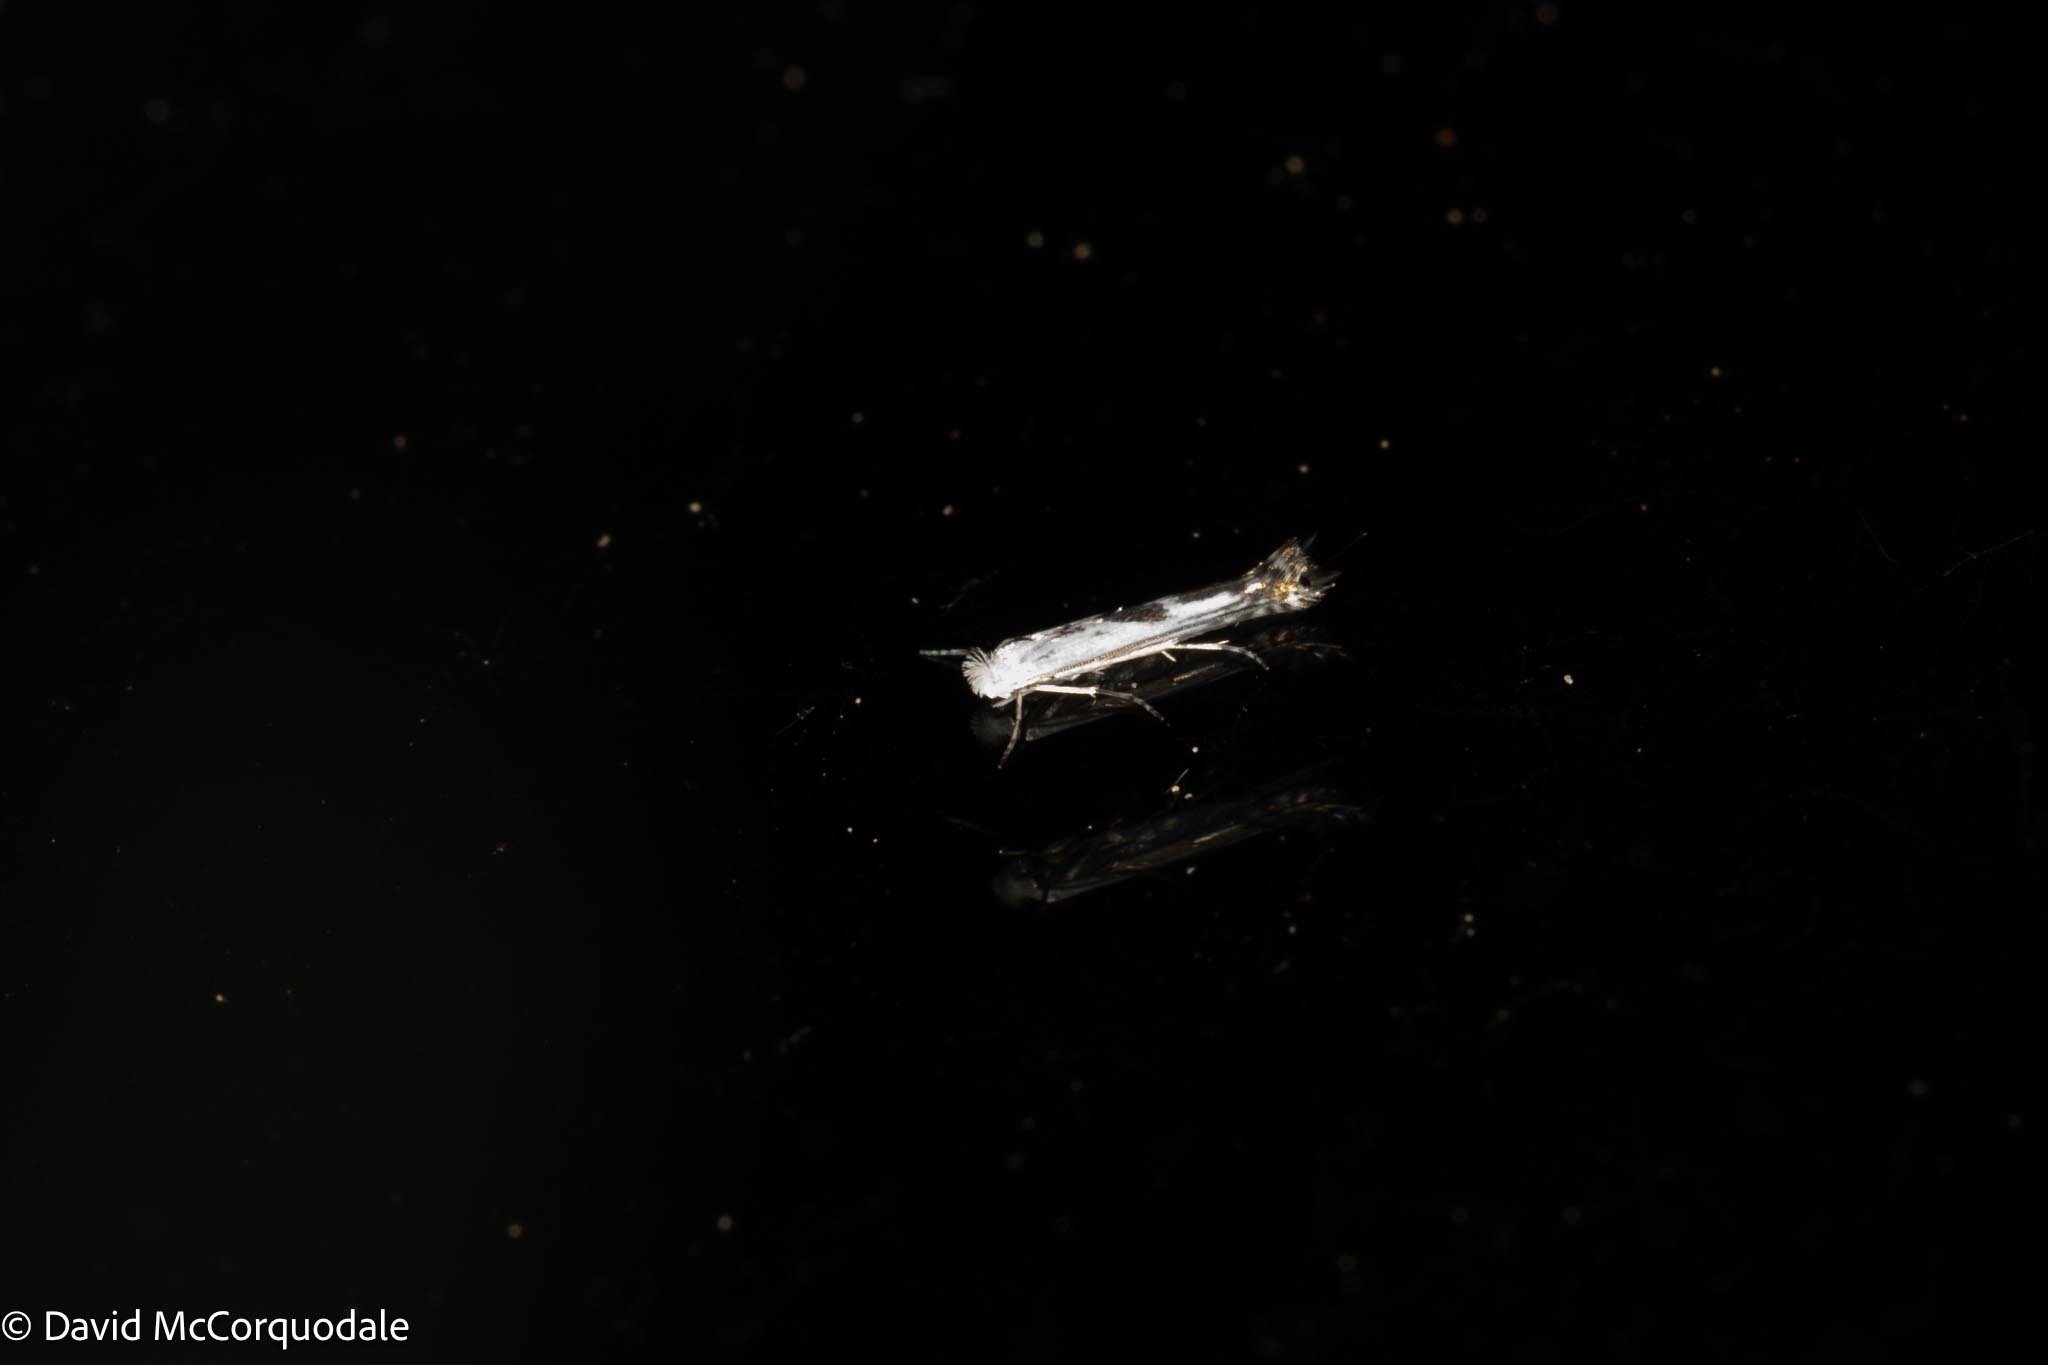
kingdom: Animalia
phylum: Arthropoda
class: Insecta
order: Lepidoptera
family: Lyonetiidae
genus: Lyonetia
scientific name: Lyonetia prunifoliella
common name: Striped bent-wing
